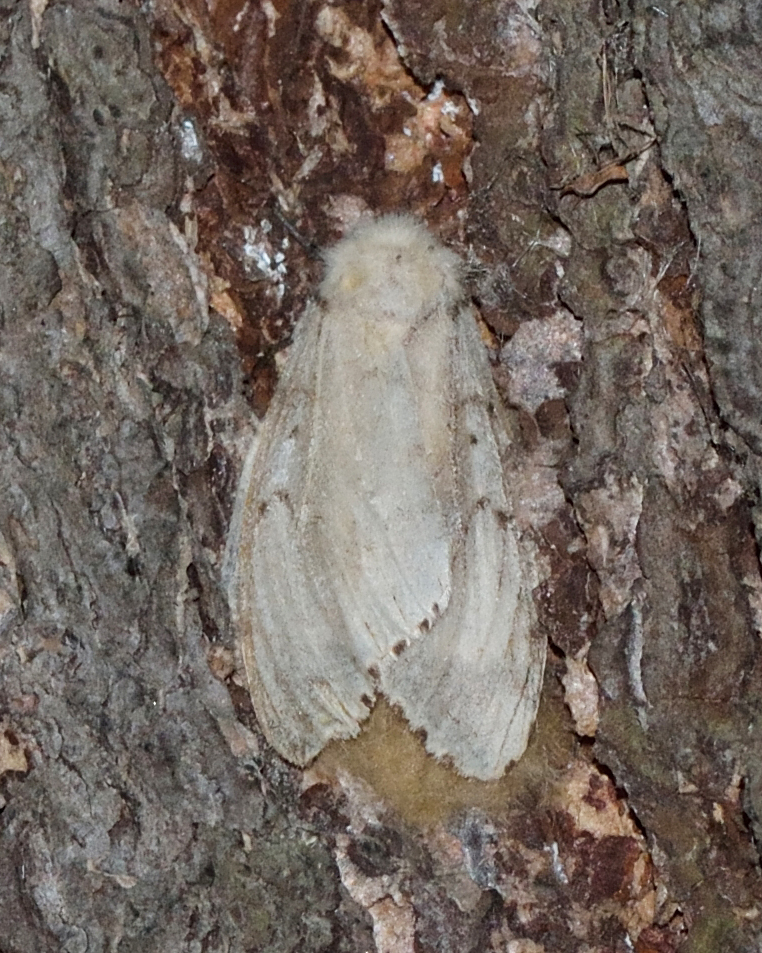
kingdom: Animalia
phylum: Arthropoda
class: Insecta
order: Lepidoptera
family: Erebidae
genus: Lymantria
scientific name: Lymantria dispar
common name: Gypsy moth
